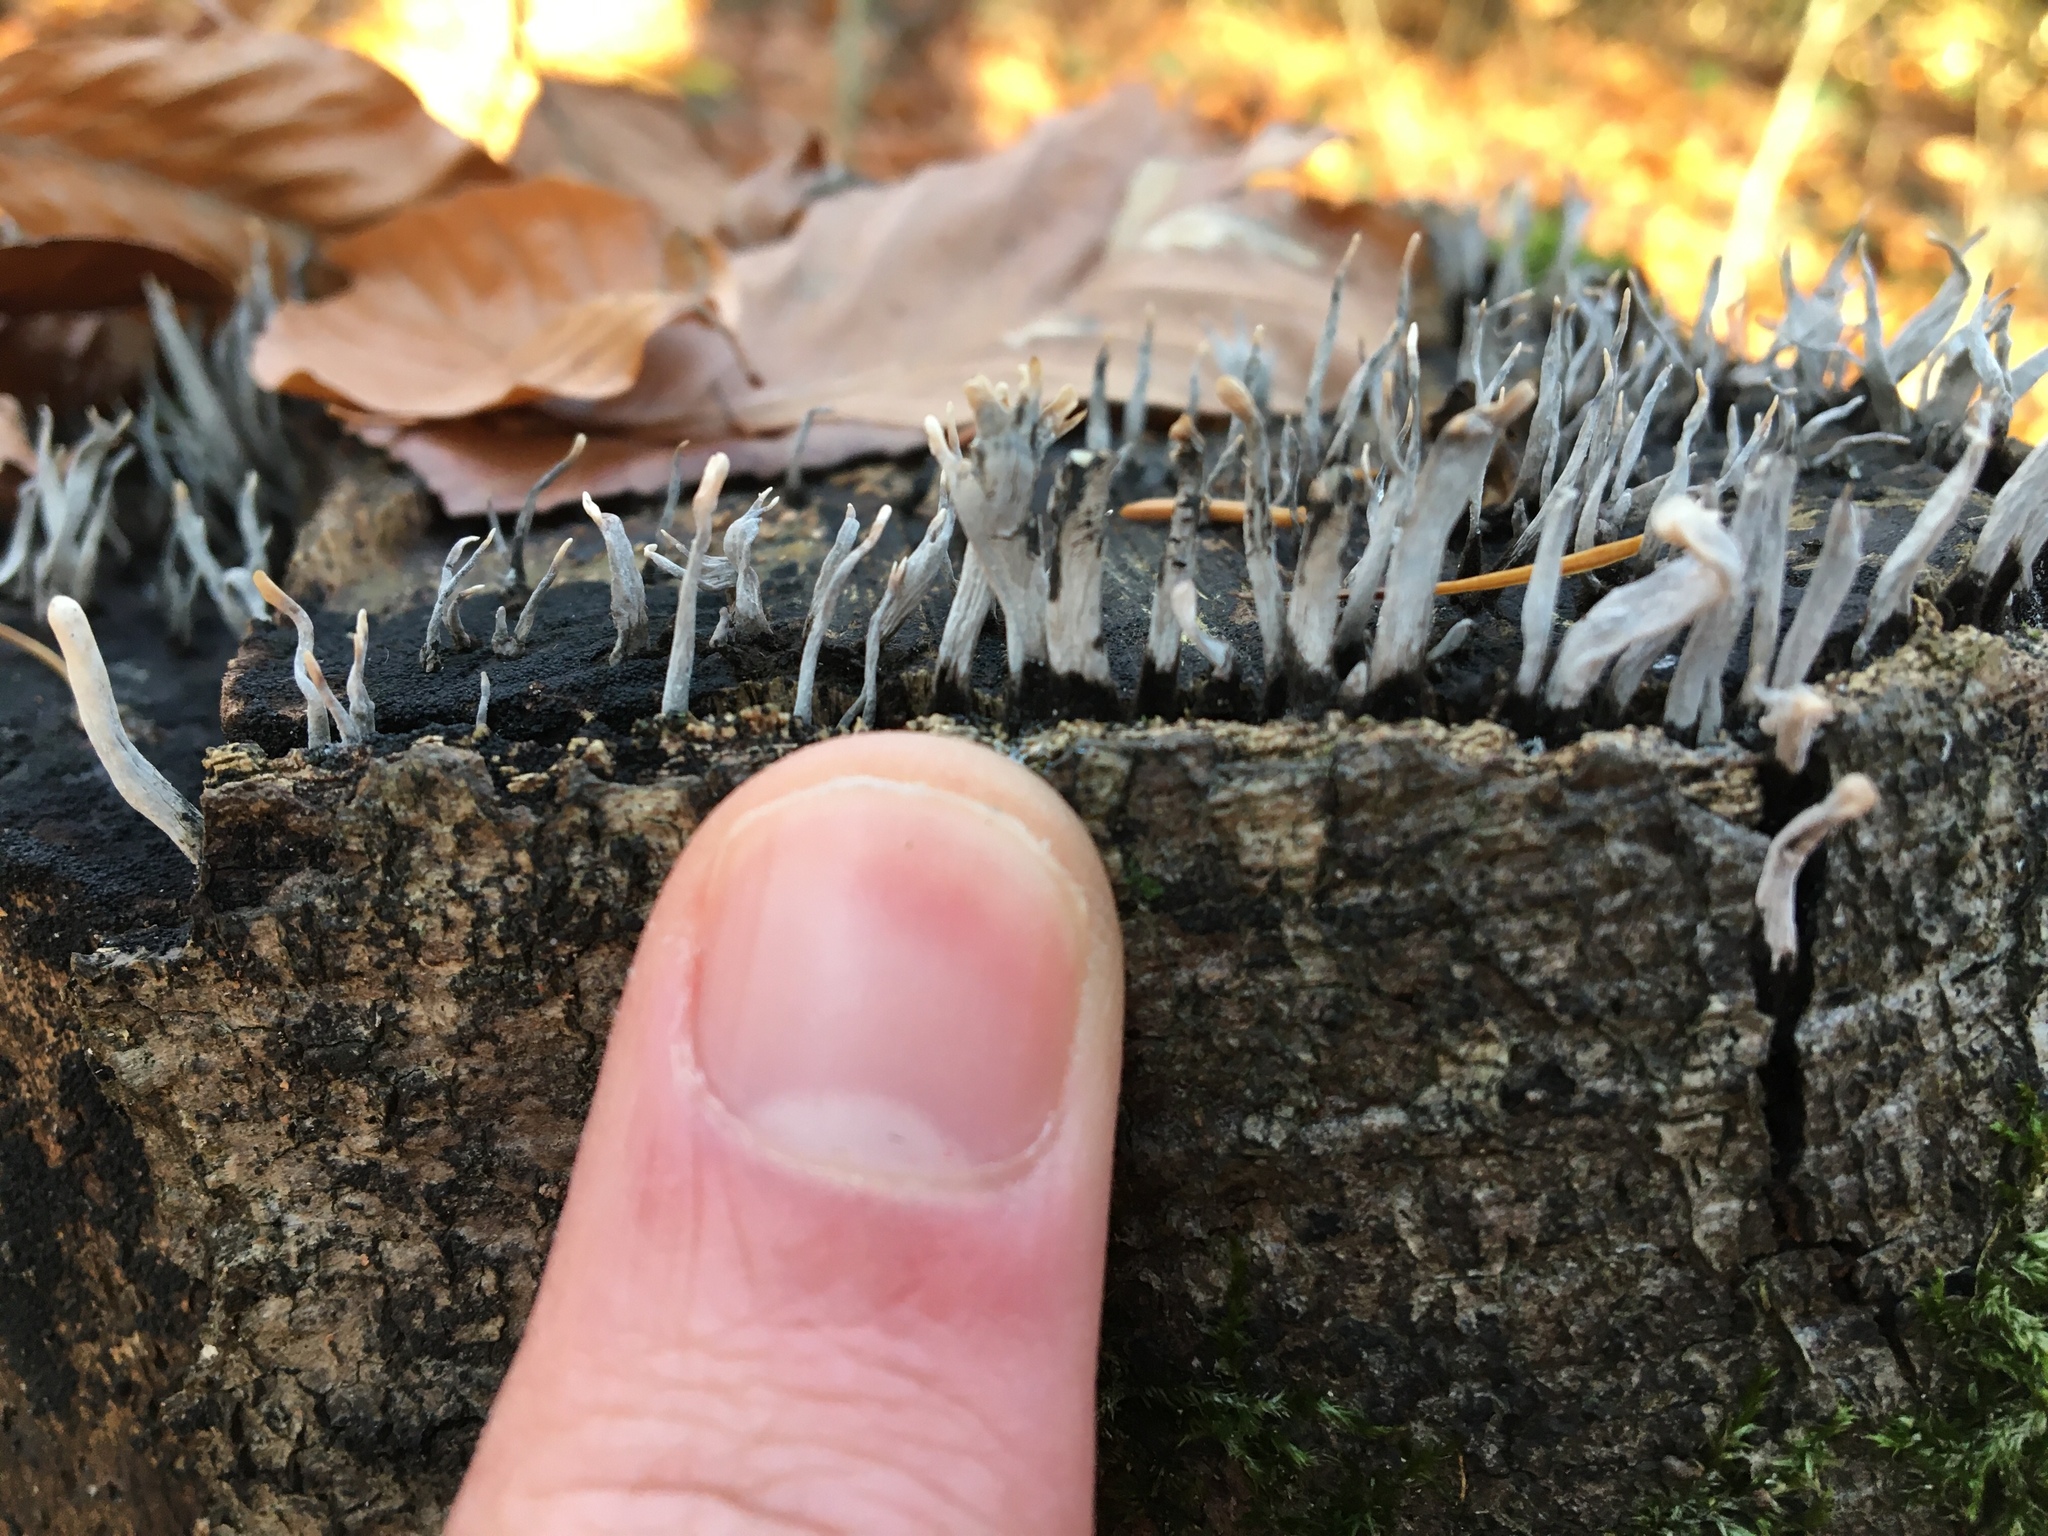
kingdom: Fungi
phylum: Ascomycota
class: Sordariomycetes
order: Xylariales
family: Xylariaceae
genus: Xylaria
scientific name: Xylaria hypoxylon
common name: Candle-snuff fungus
